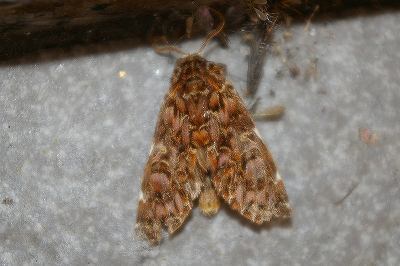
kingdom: Animalia
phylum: Arthropoda
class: Insecta
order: Lepidoptera
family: Notodontidae
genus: Hagapteryx
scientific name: Hagapteryx admirabilis
